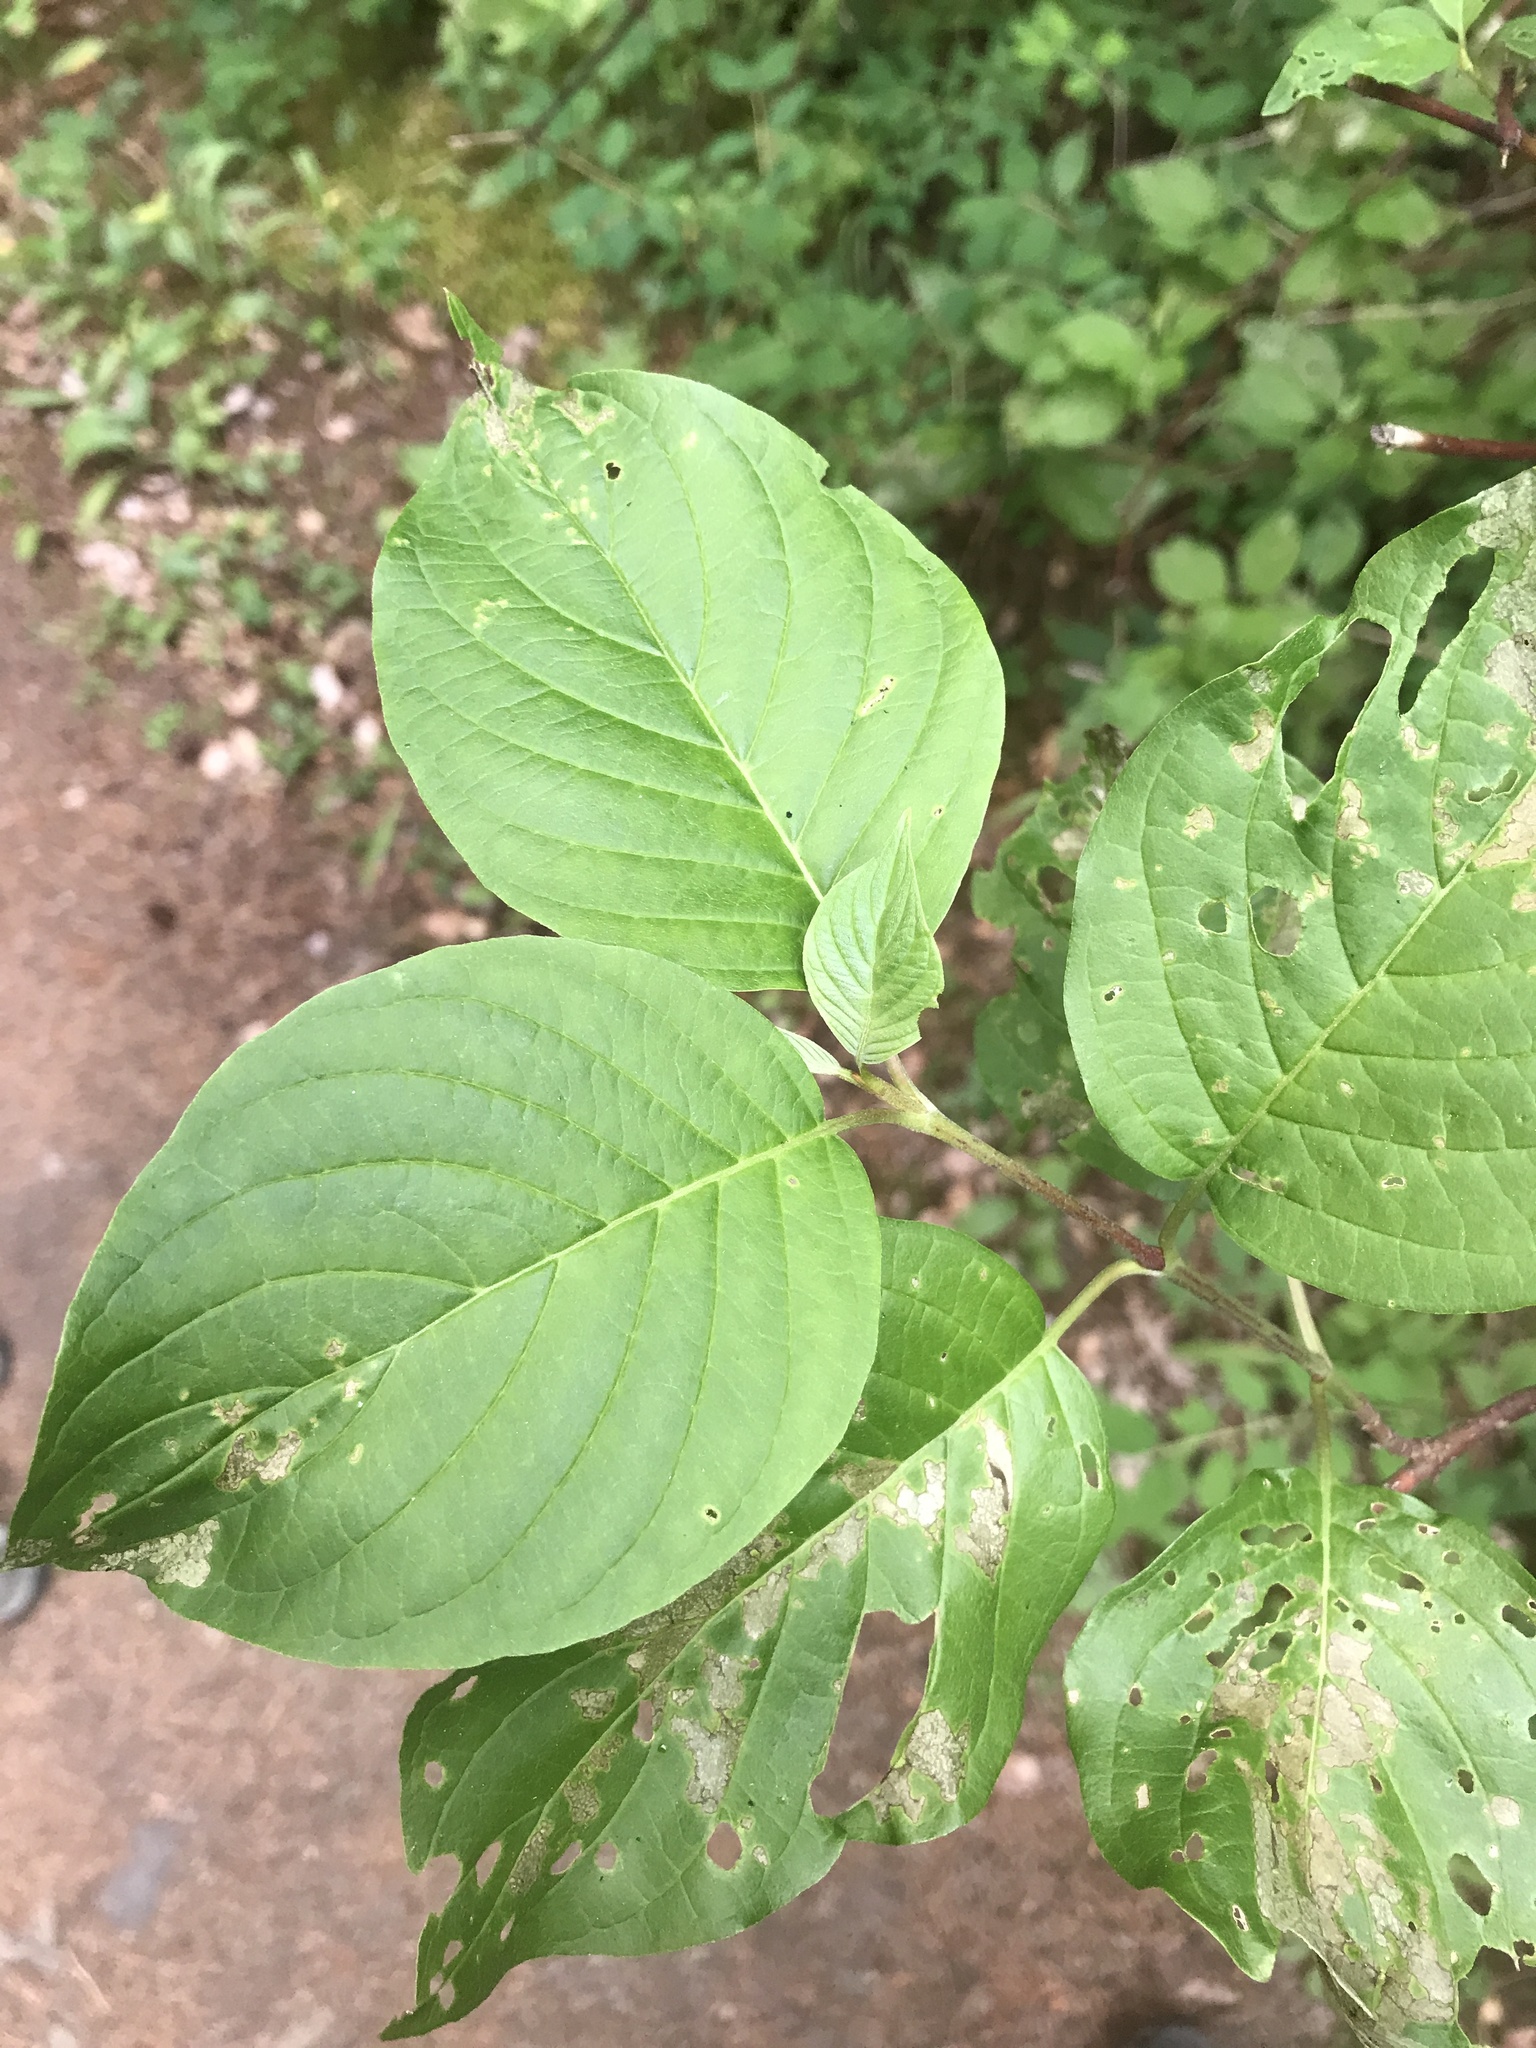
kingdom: Plantae
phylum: Tracheophyta
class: Magnoliopsida
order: Cornales
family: Cornaceae
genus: Cornus
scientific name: Cornus sericea
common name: Red-osier dogwood
